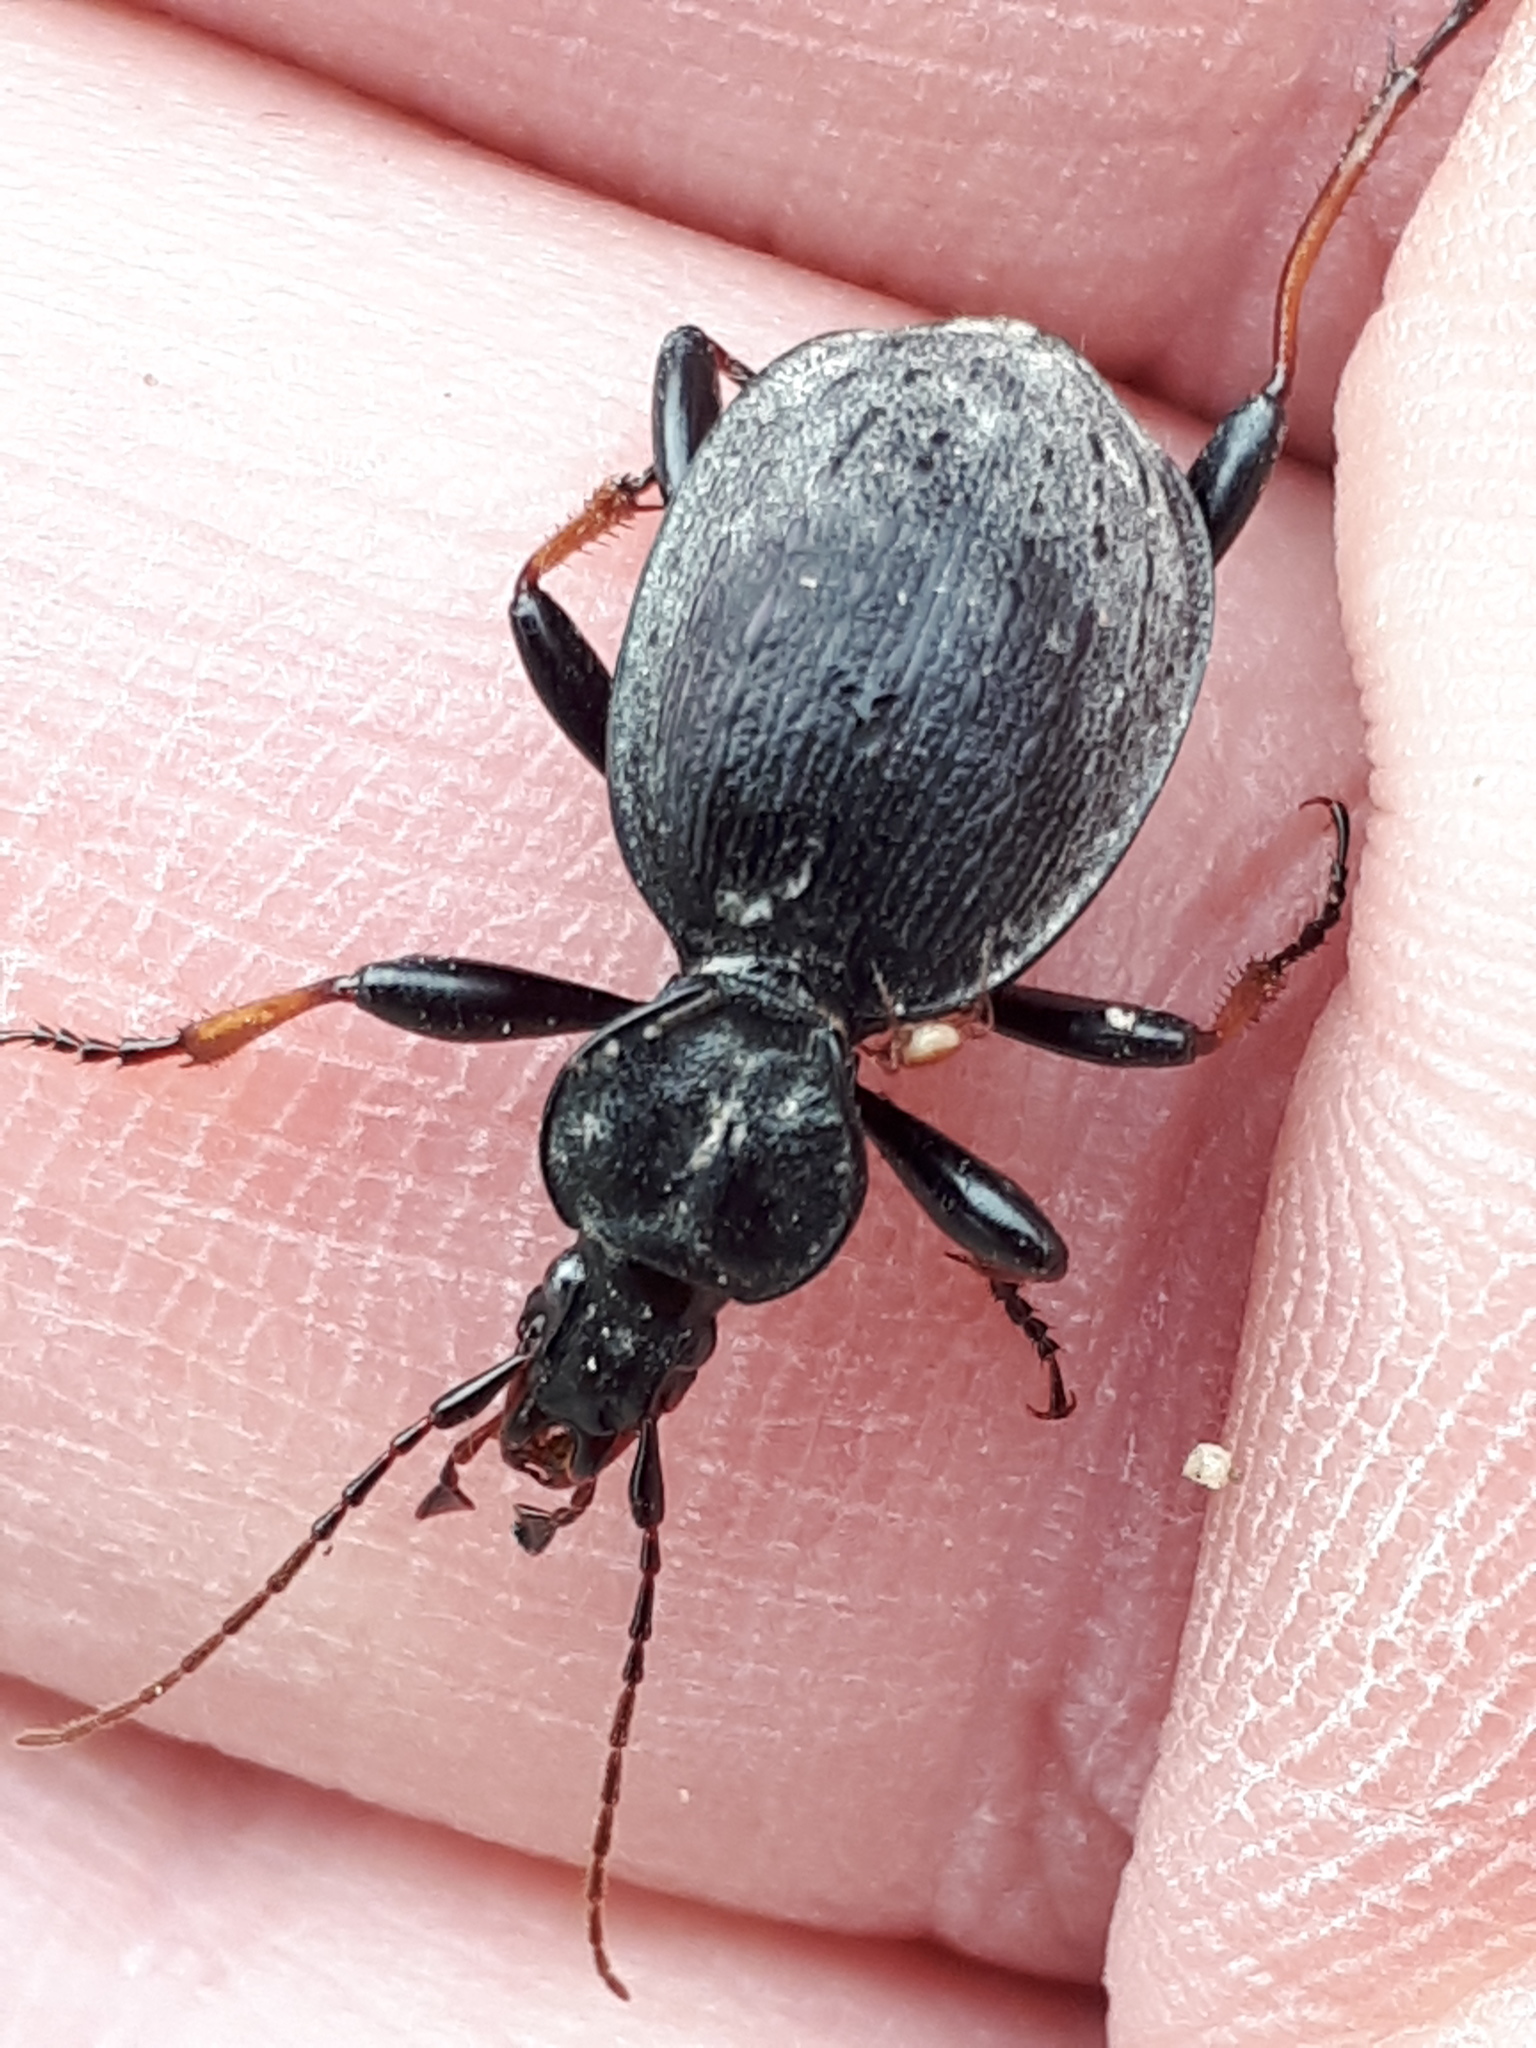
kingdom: Animalia
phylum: Arthropoda
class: Insecta
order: Coleoptera
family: Carabidae
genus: Cychrus
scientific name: Cychrus attenuatus
